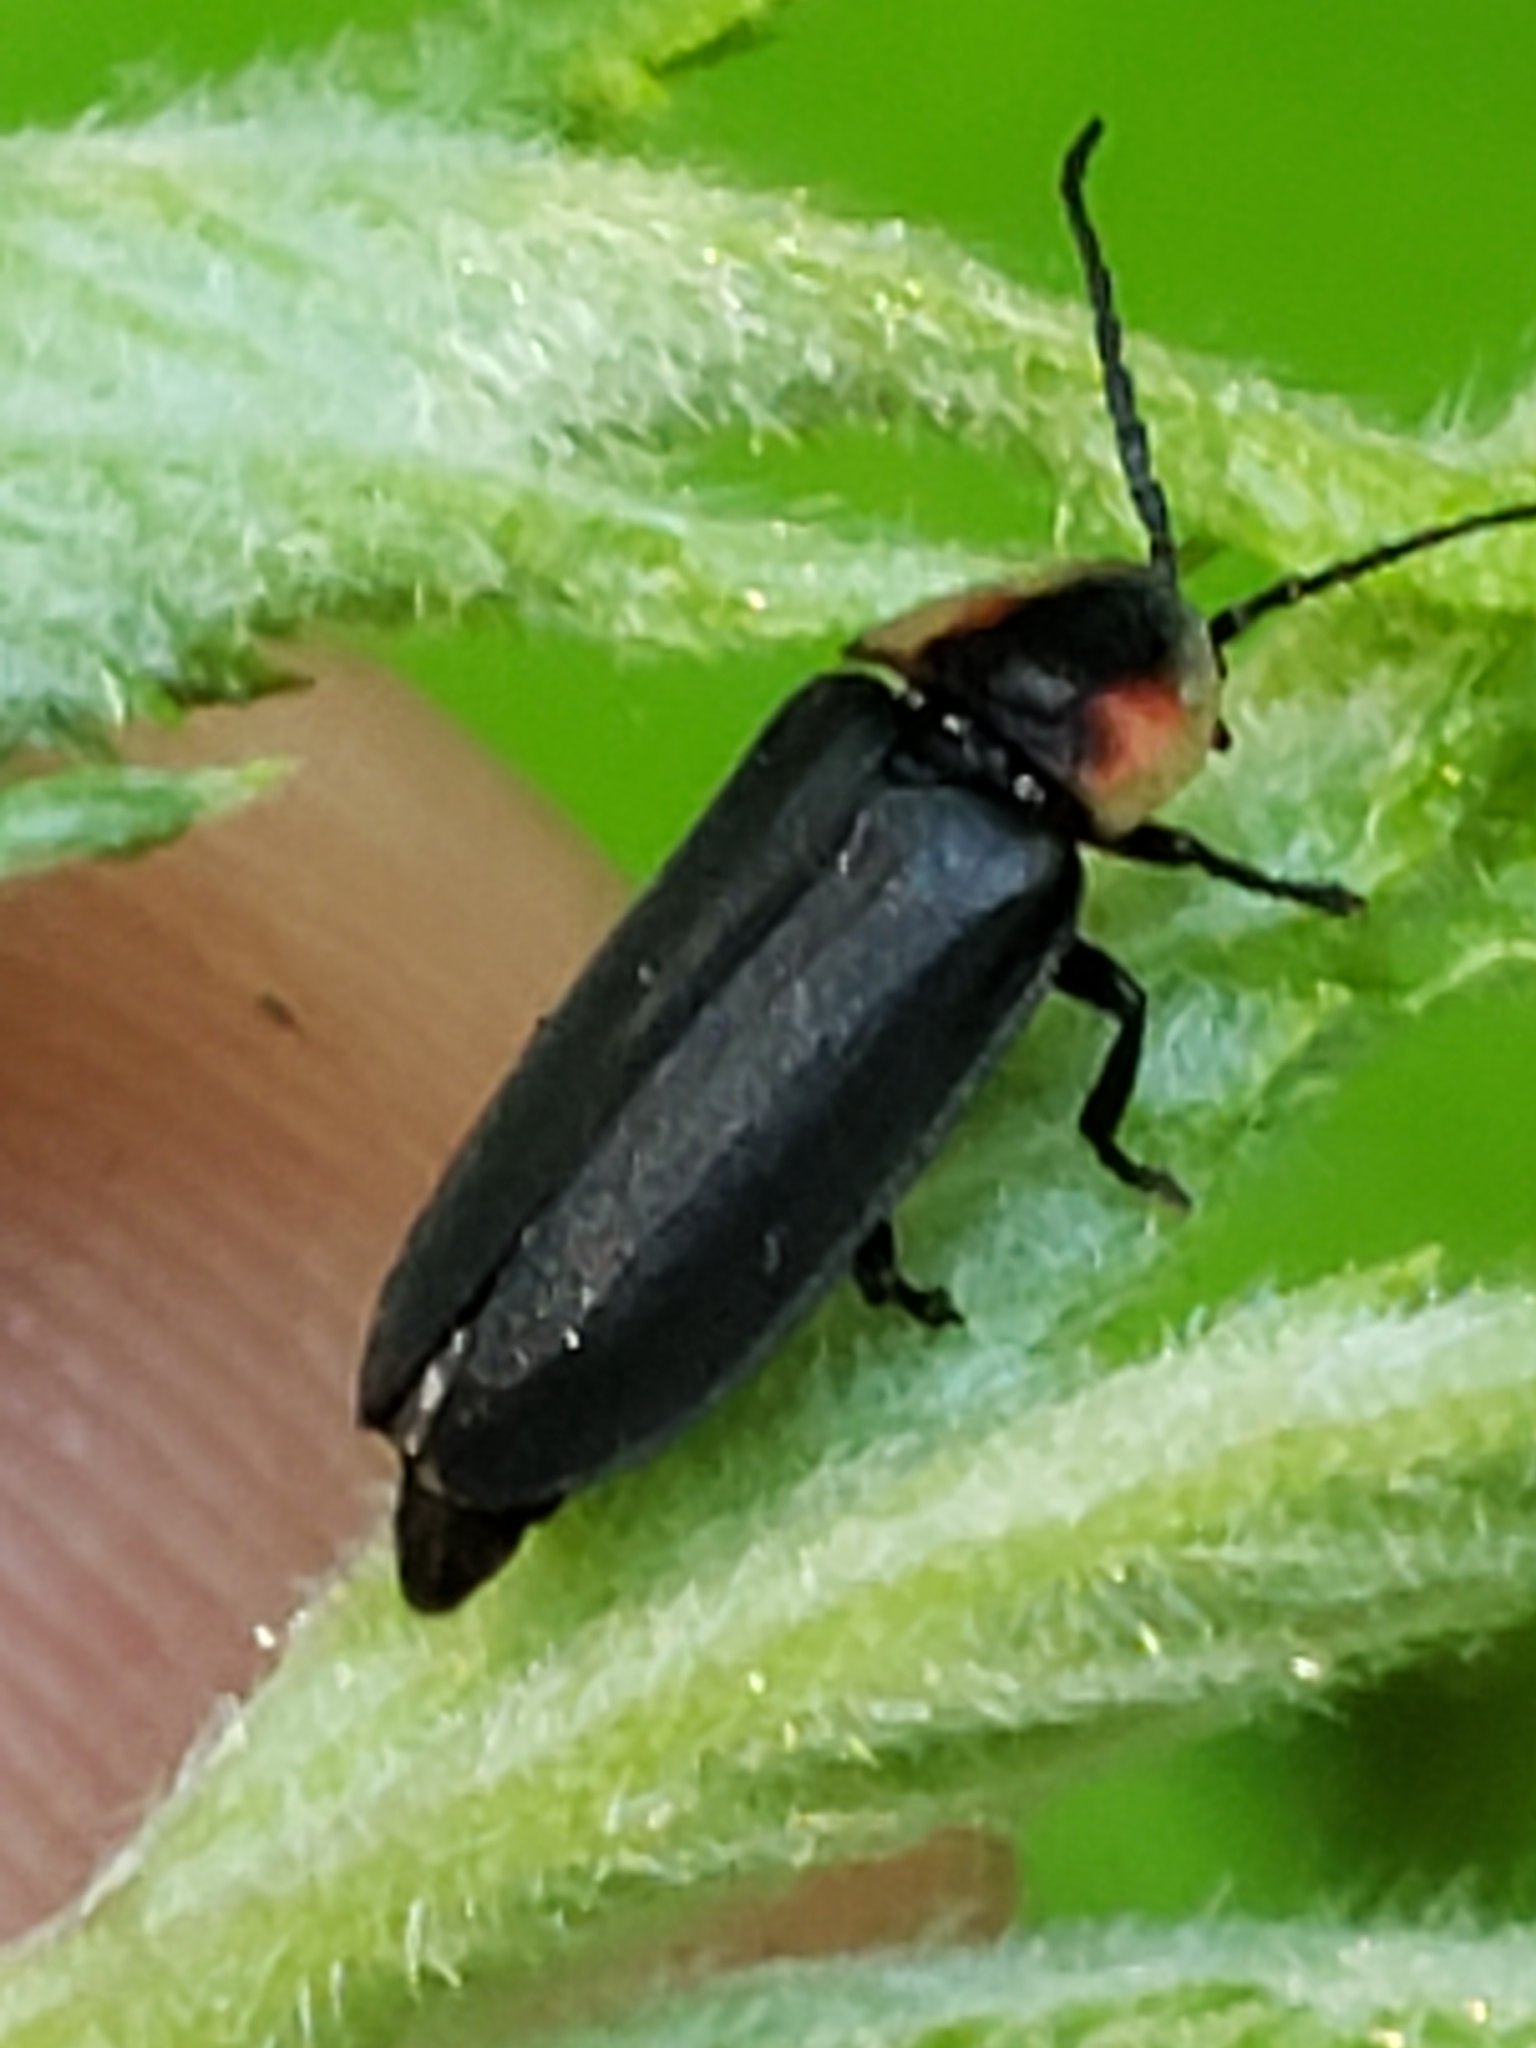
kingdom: Animalia
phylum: Arthropoda
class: Insecta
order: Coleoptera
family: Lampyridae
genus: Pyropyga
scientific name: Pyropyga decipiens
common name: Sneaky elf
